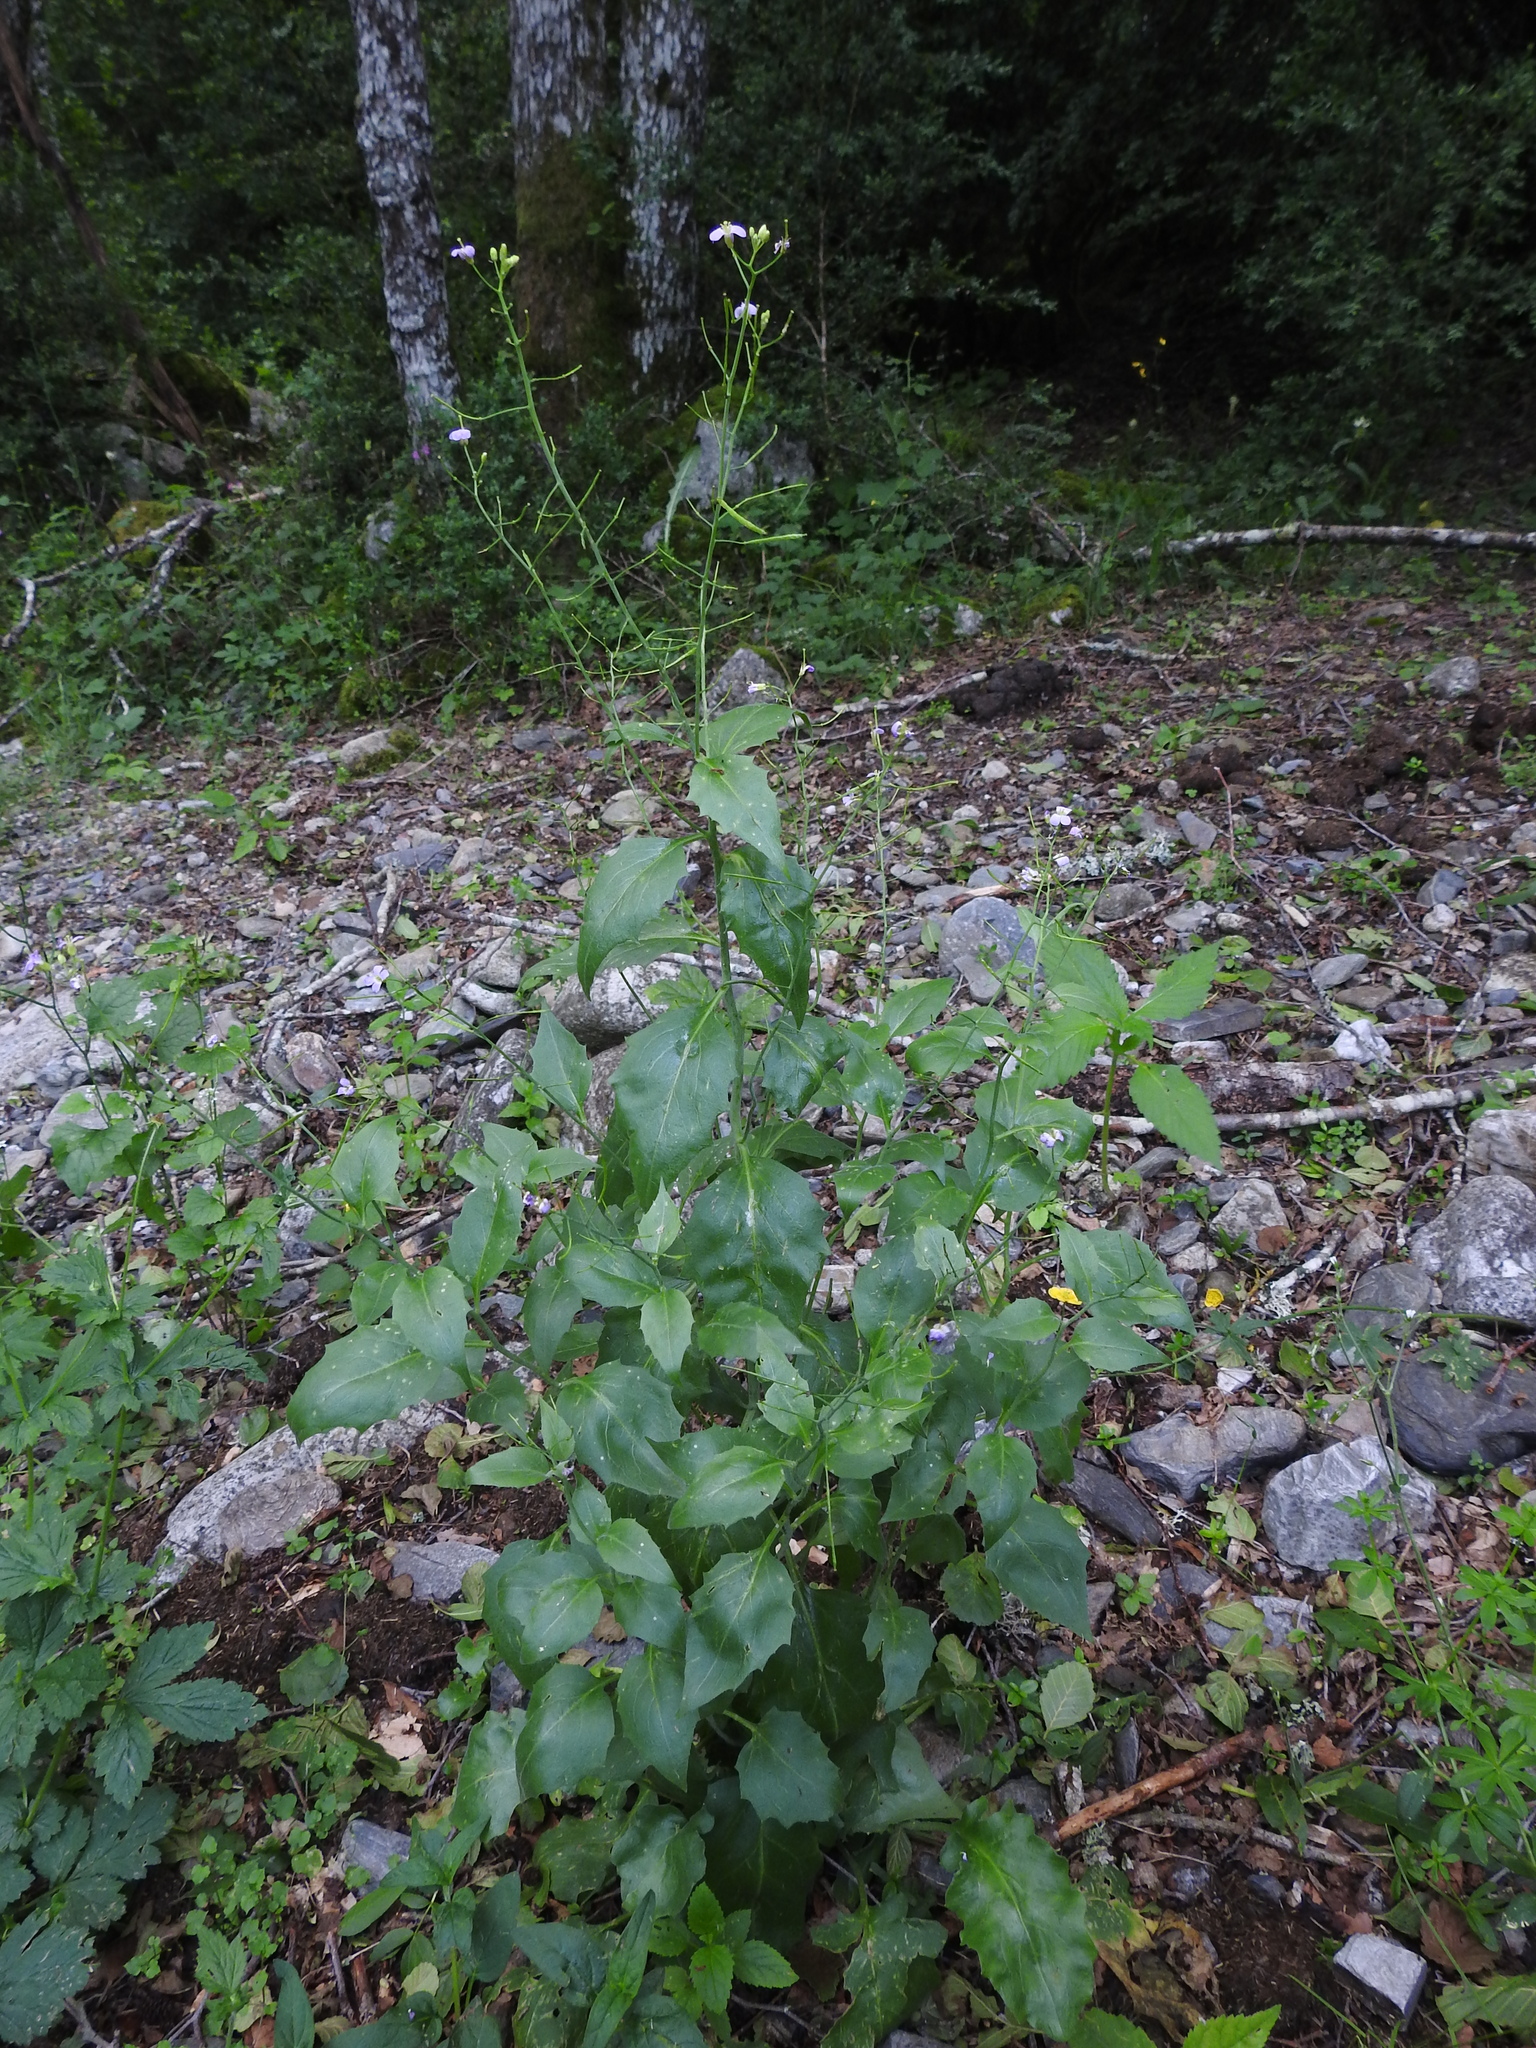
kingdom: Plantae
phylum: Tracheophyta
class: Magnoliopsida
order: Brassicales
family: Brassicaceae
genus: Arabidopsis
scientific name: Arabidopsis cebennensis
